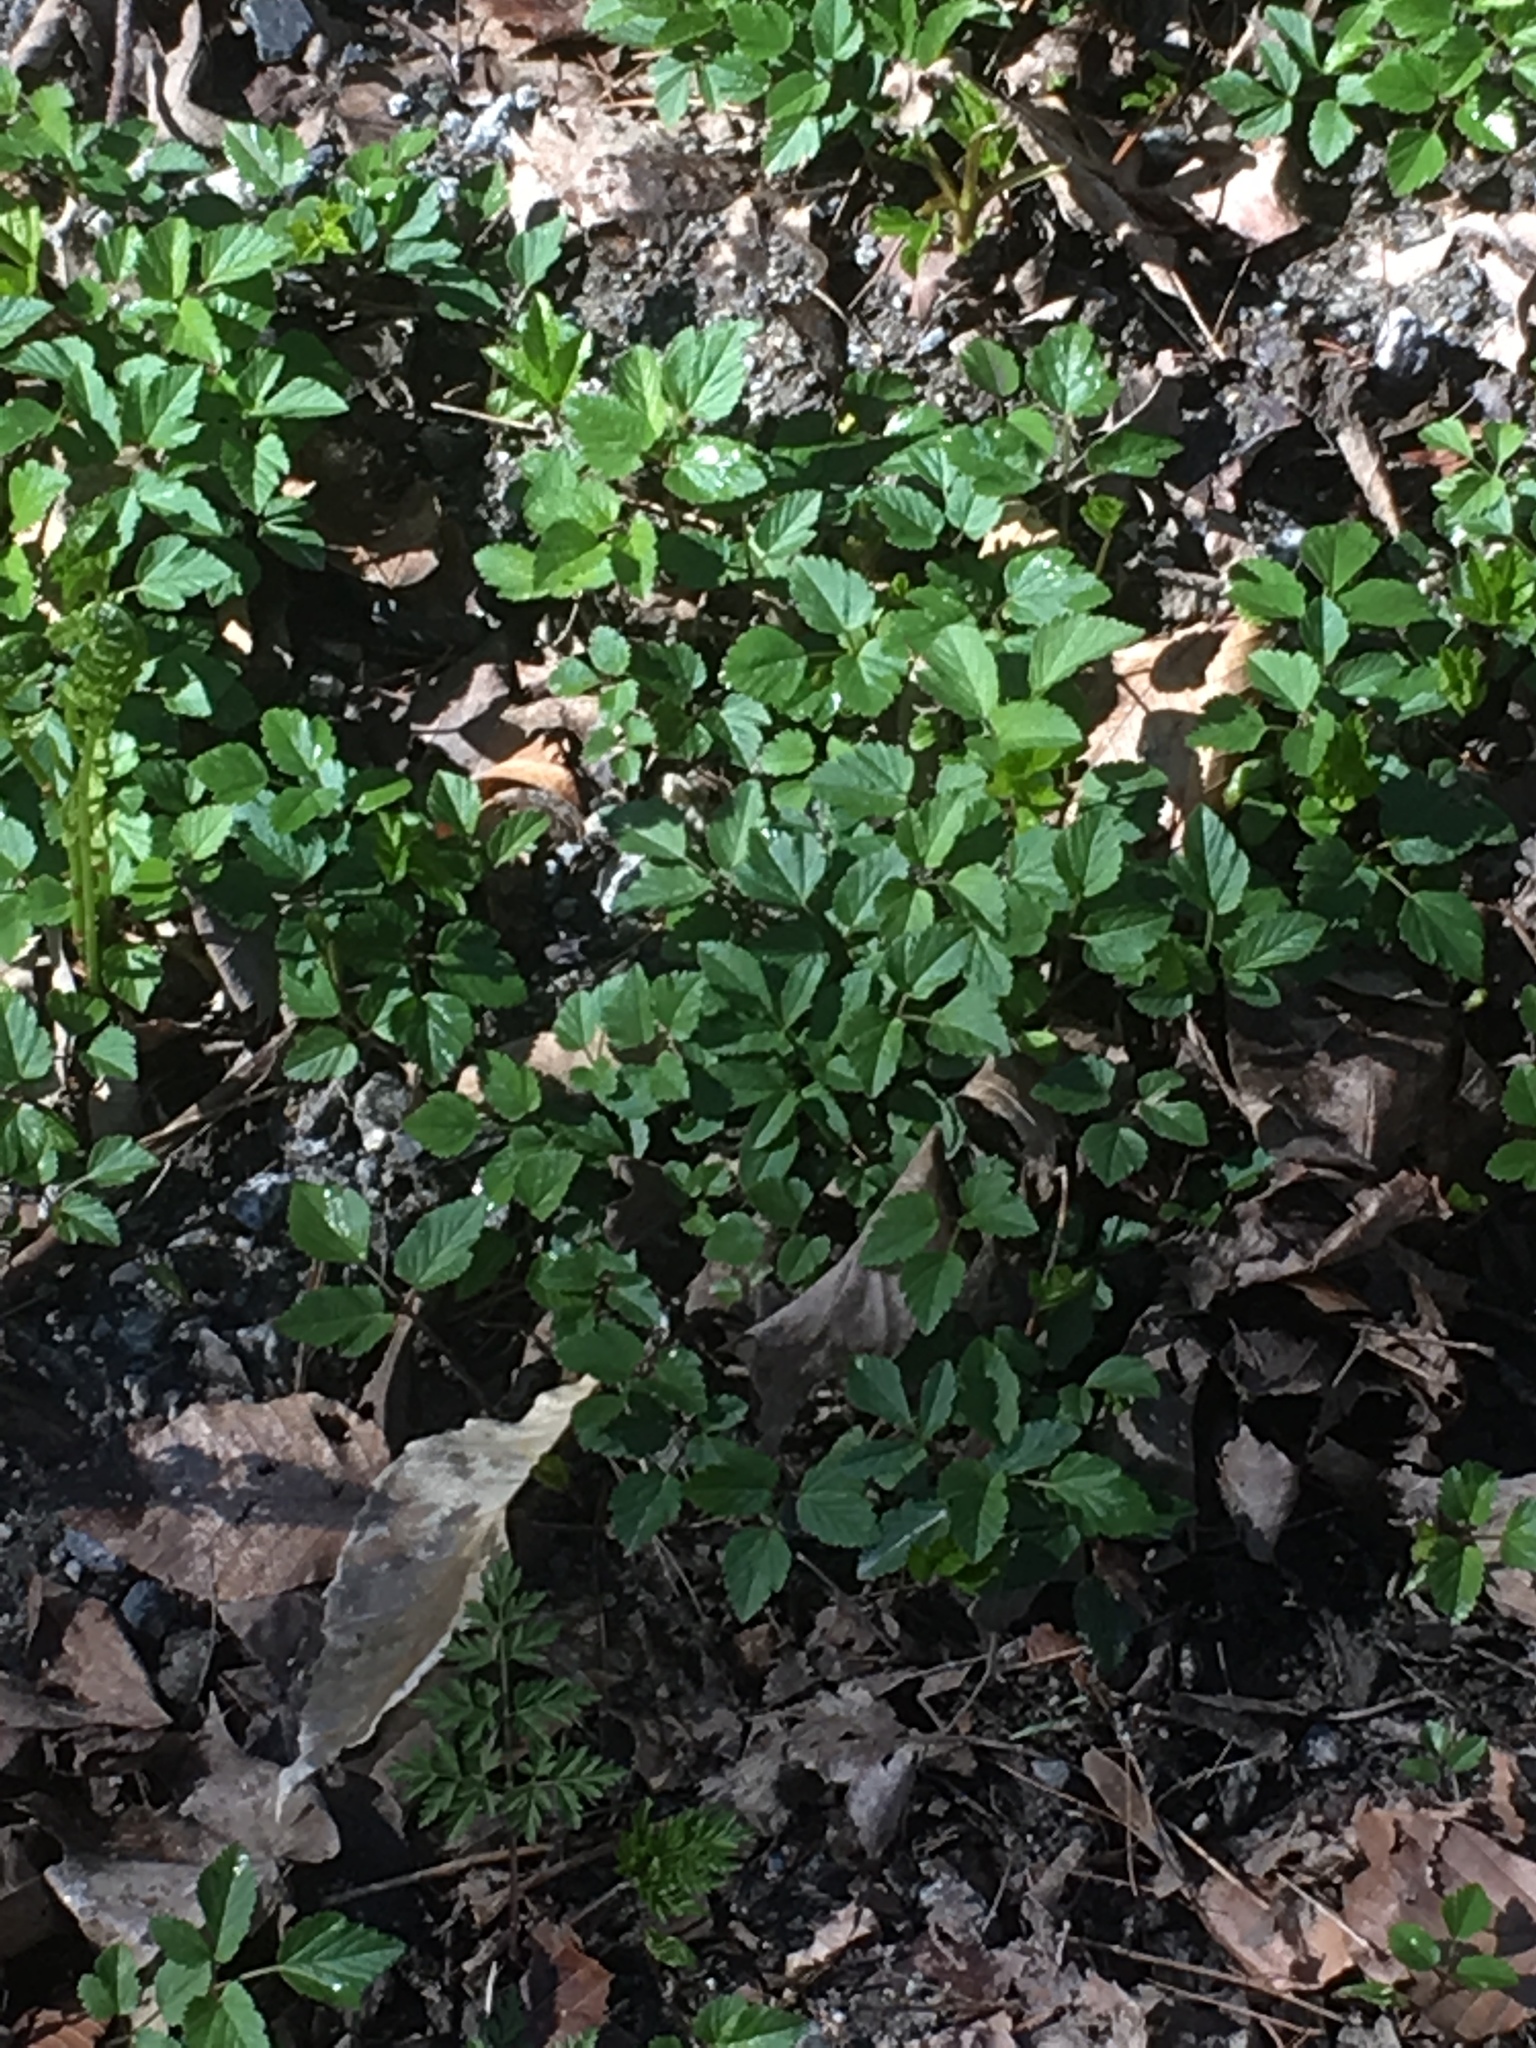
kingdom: Plantae
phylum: Tracheophyta
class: Magnoliopsida
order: Apiales
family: Apiaceae
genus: Aegopodium
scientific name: Aegopodium podagraria
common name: Ground-elder
